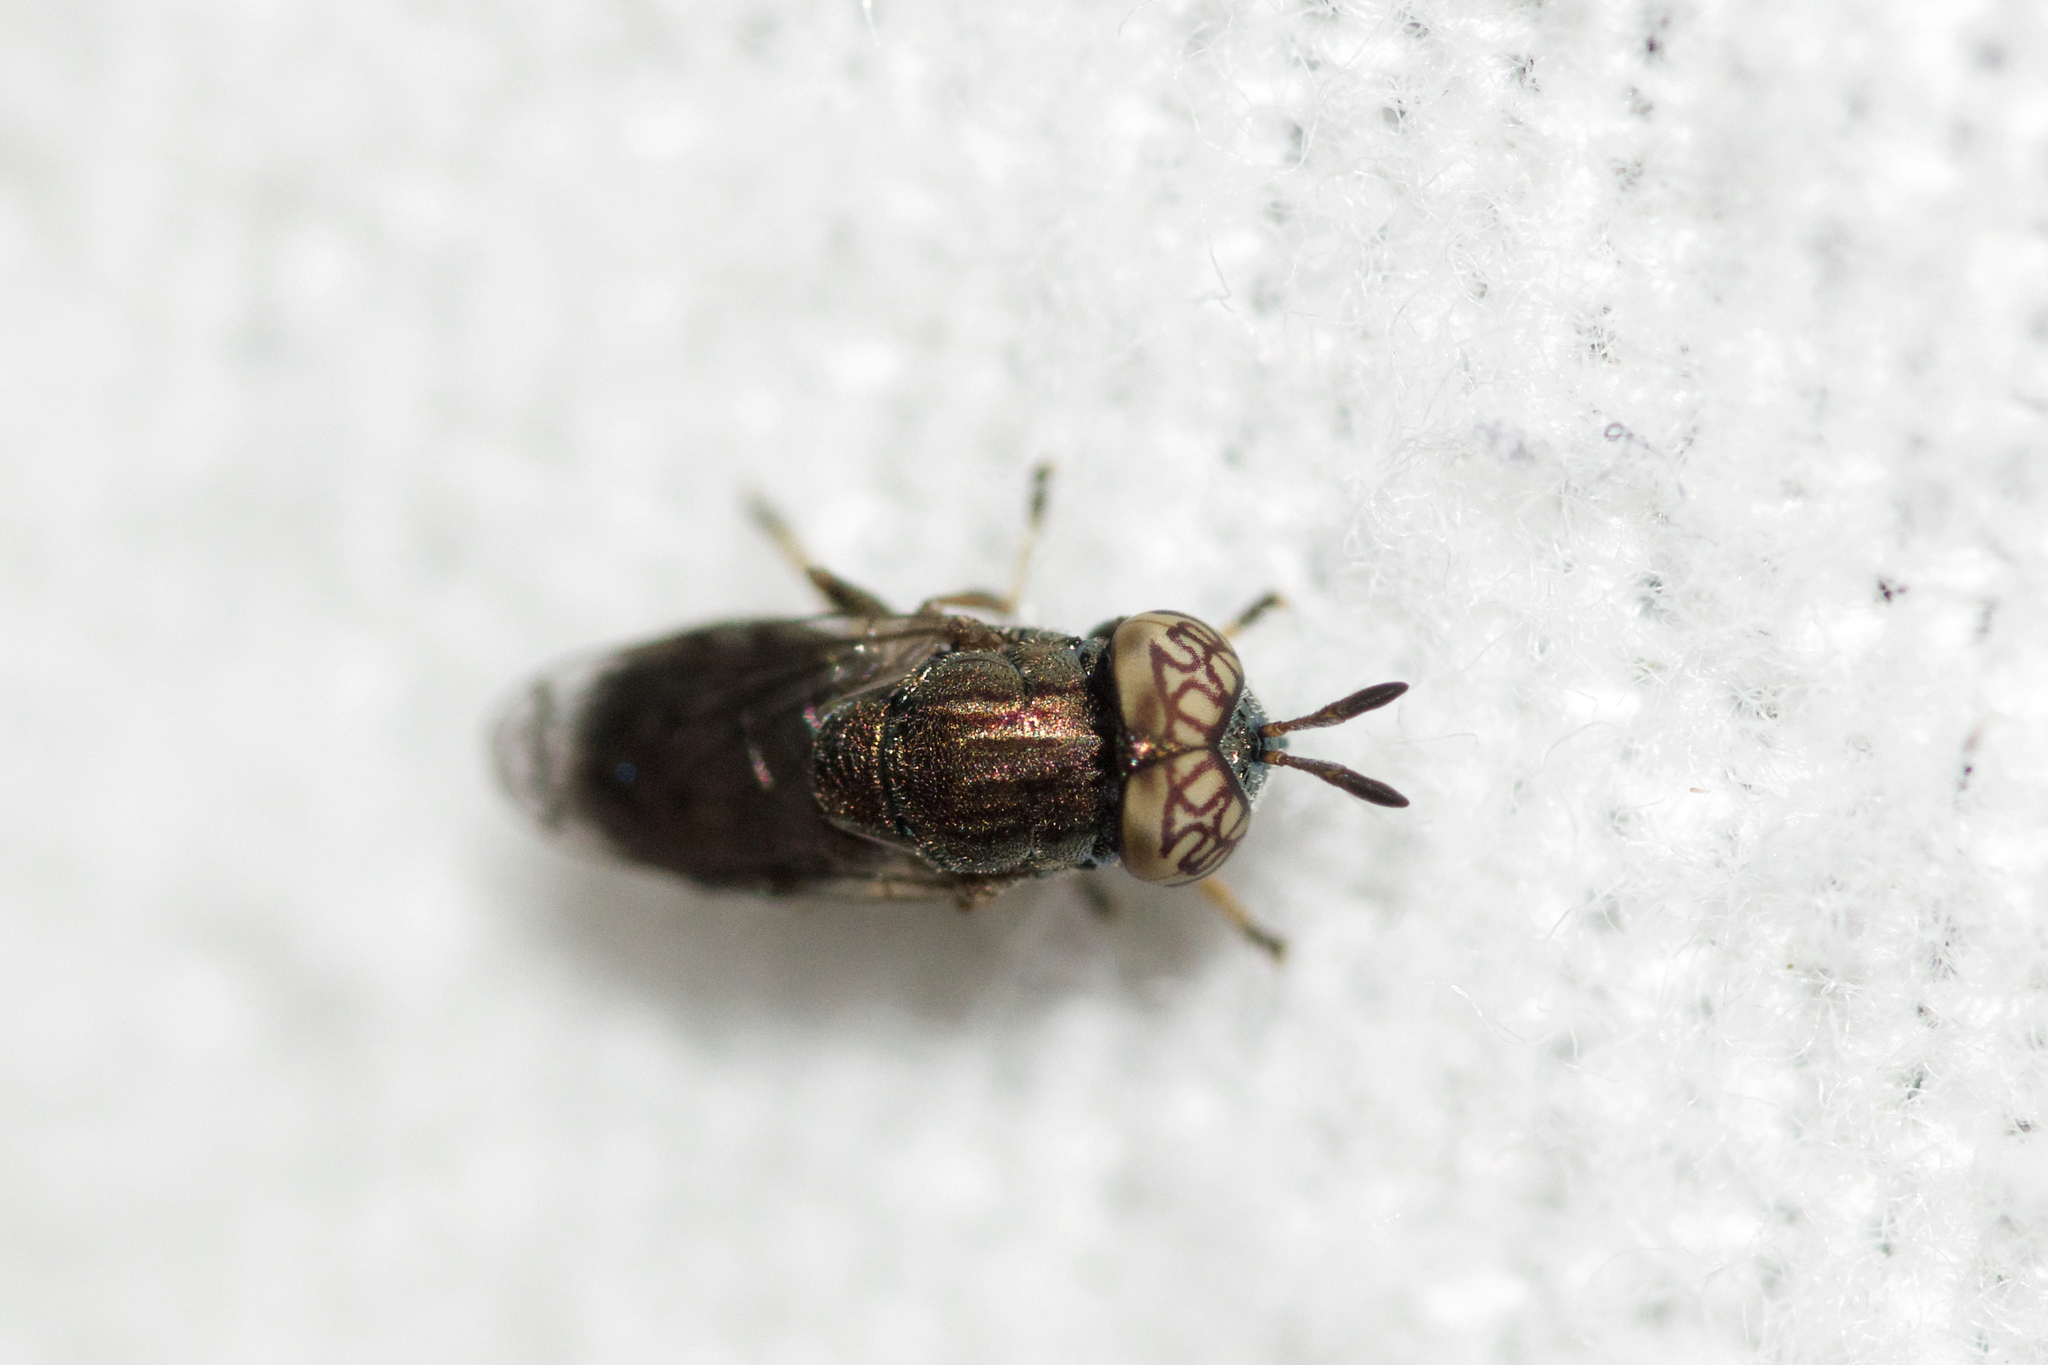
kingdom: Animalia
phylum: Arthropoda
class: Insecta
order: Diptera
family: Syrphidae
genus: Orthonevra
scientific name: Orthonevra nitida
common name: Wavy mucksucker
